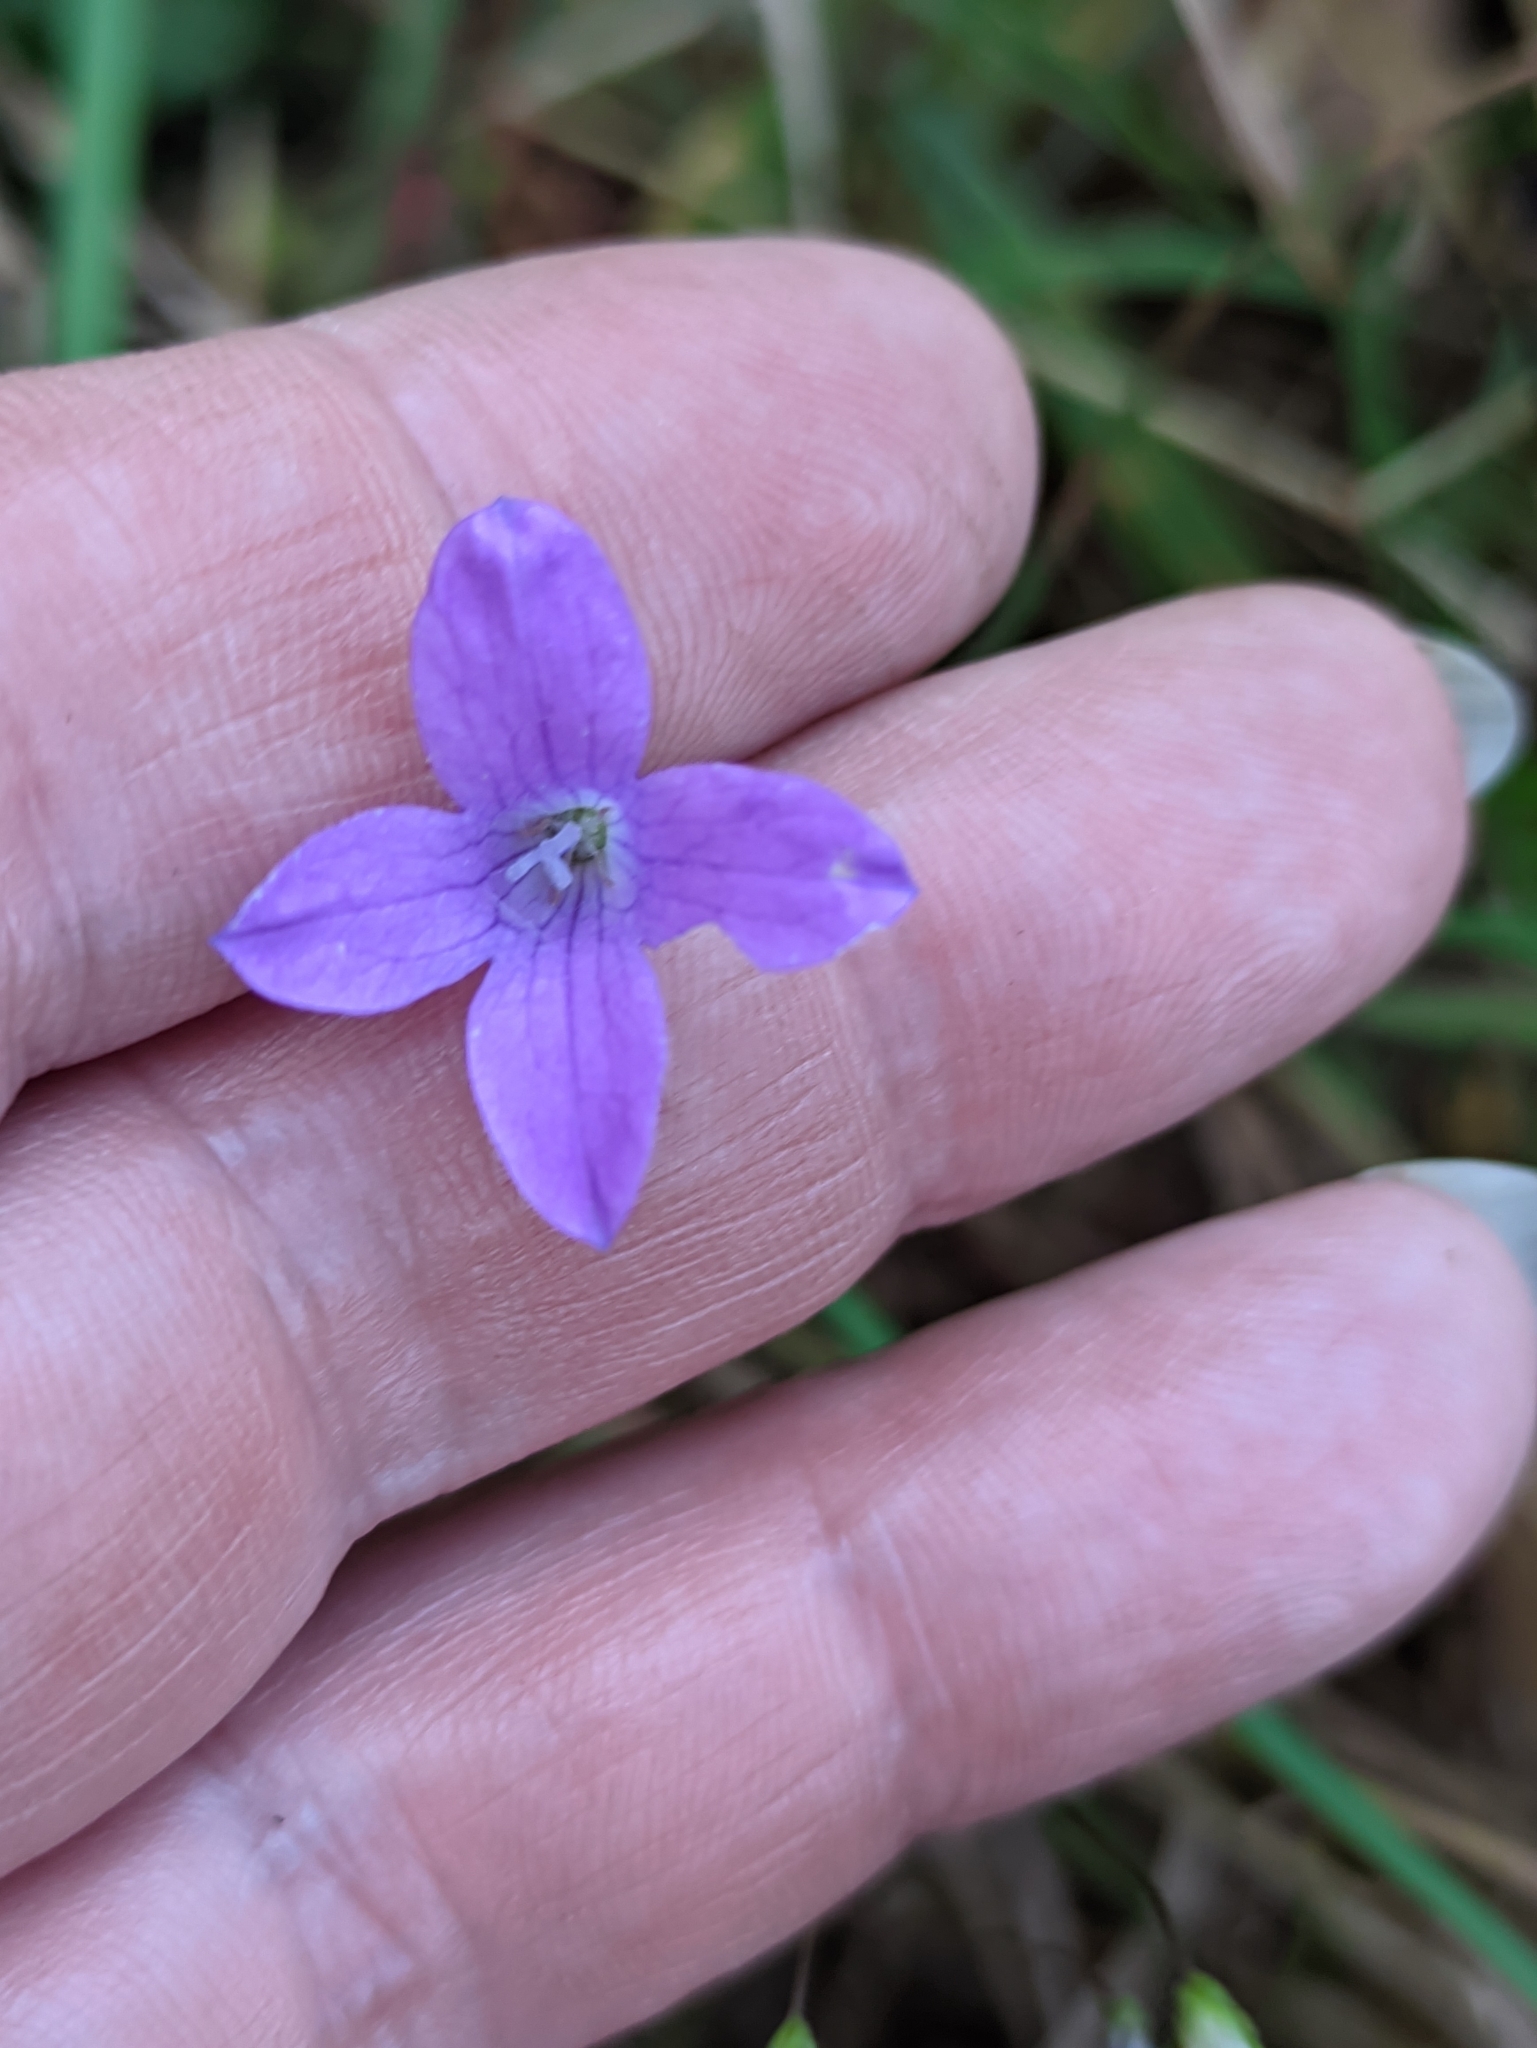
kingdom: Plantae
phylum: Tracheophyta
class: Magnoliopsida
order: Asterales
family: Campanulaceae
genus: Campanula
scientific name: Campanula patula
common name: Spreading bellflower
